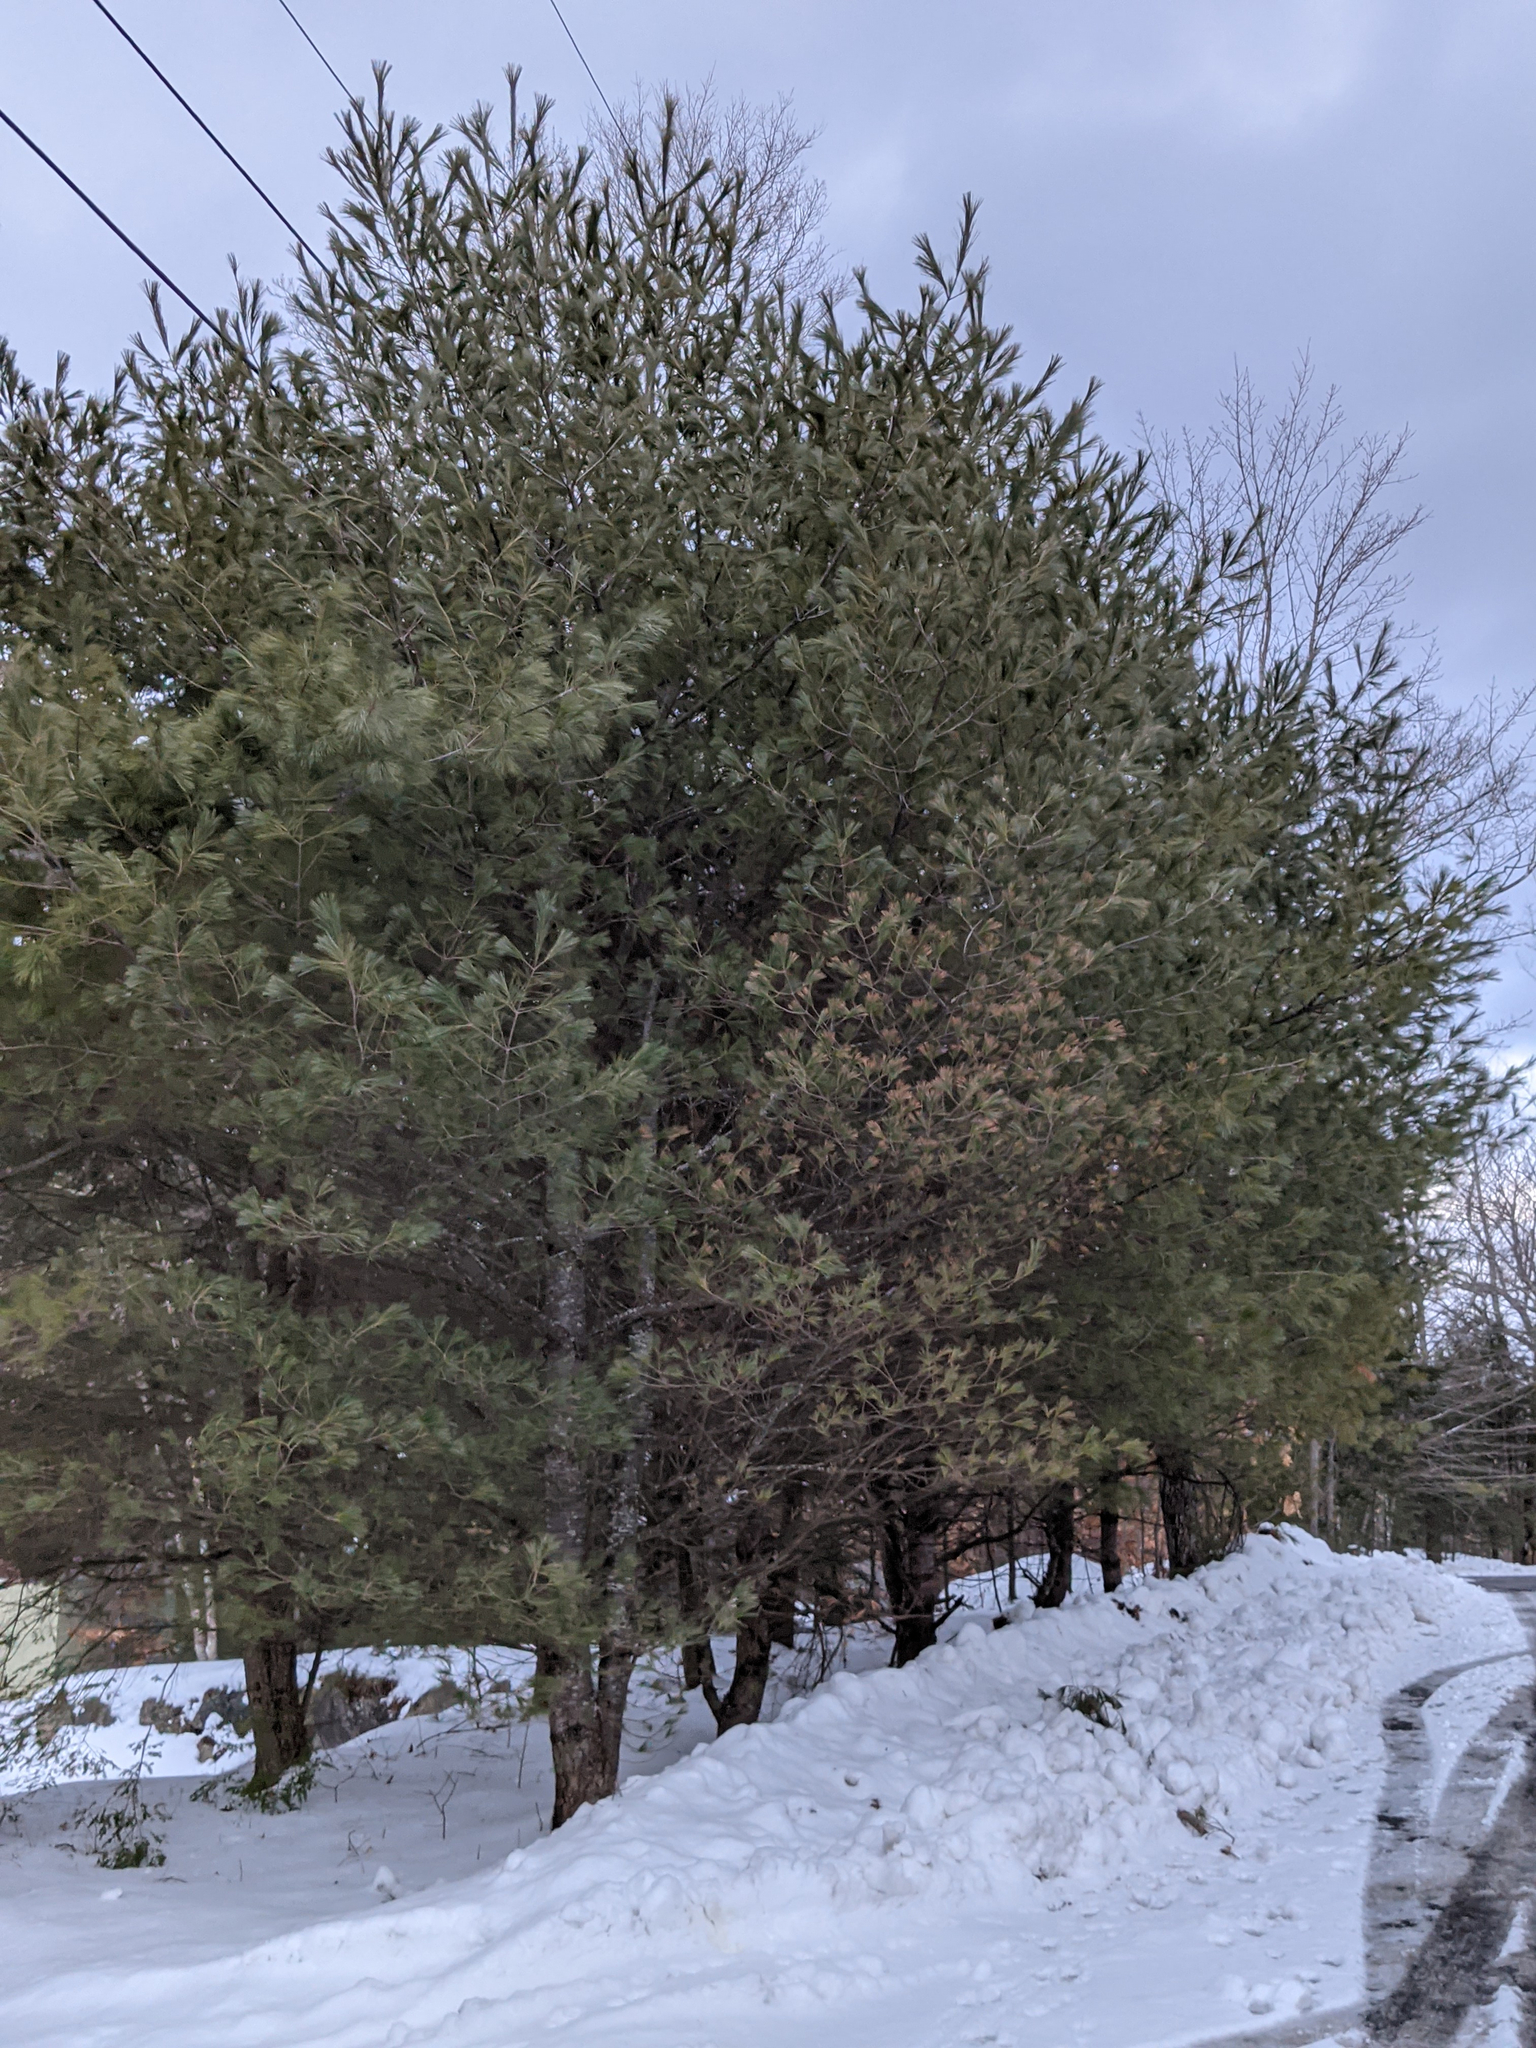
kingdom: Plantae
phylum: Tracheophyta
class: Pinopsida
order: Pinales
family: Pinaceae
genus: Pinus
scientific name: Pinus strobus
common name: Weymouth pine
